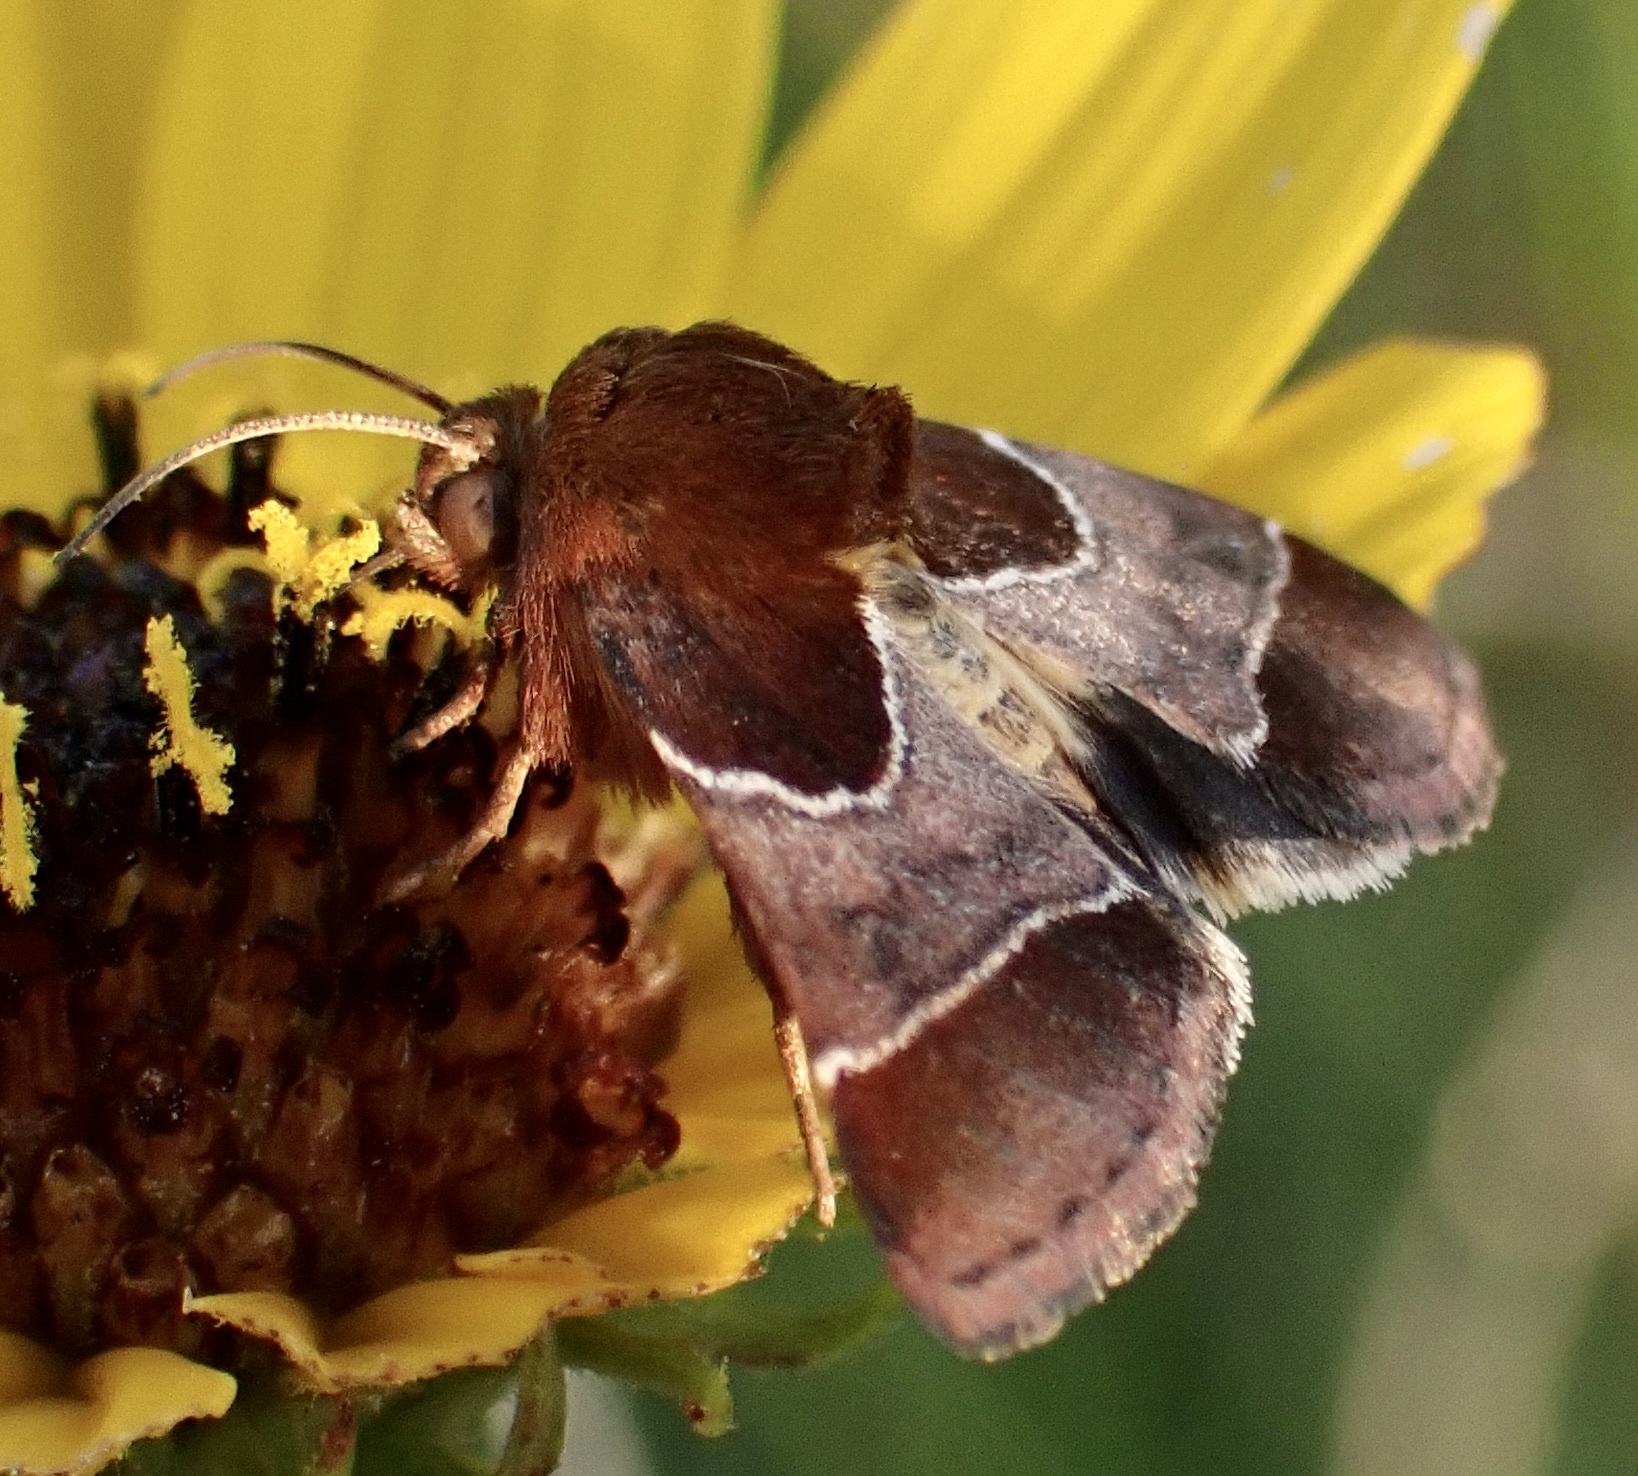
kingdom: Animalia
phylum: Arthropoda
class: Insecta
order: Lepidoptera
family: Noctuidae
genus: Schinia
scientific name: Schinia arcigera
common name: Arcigera flower moth
